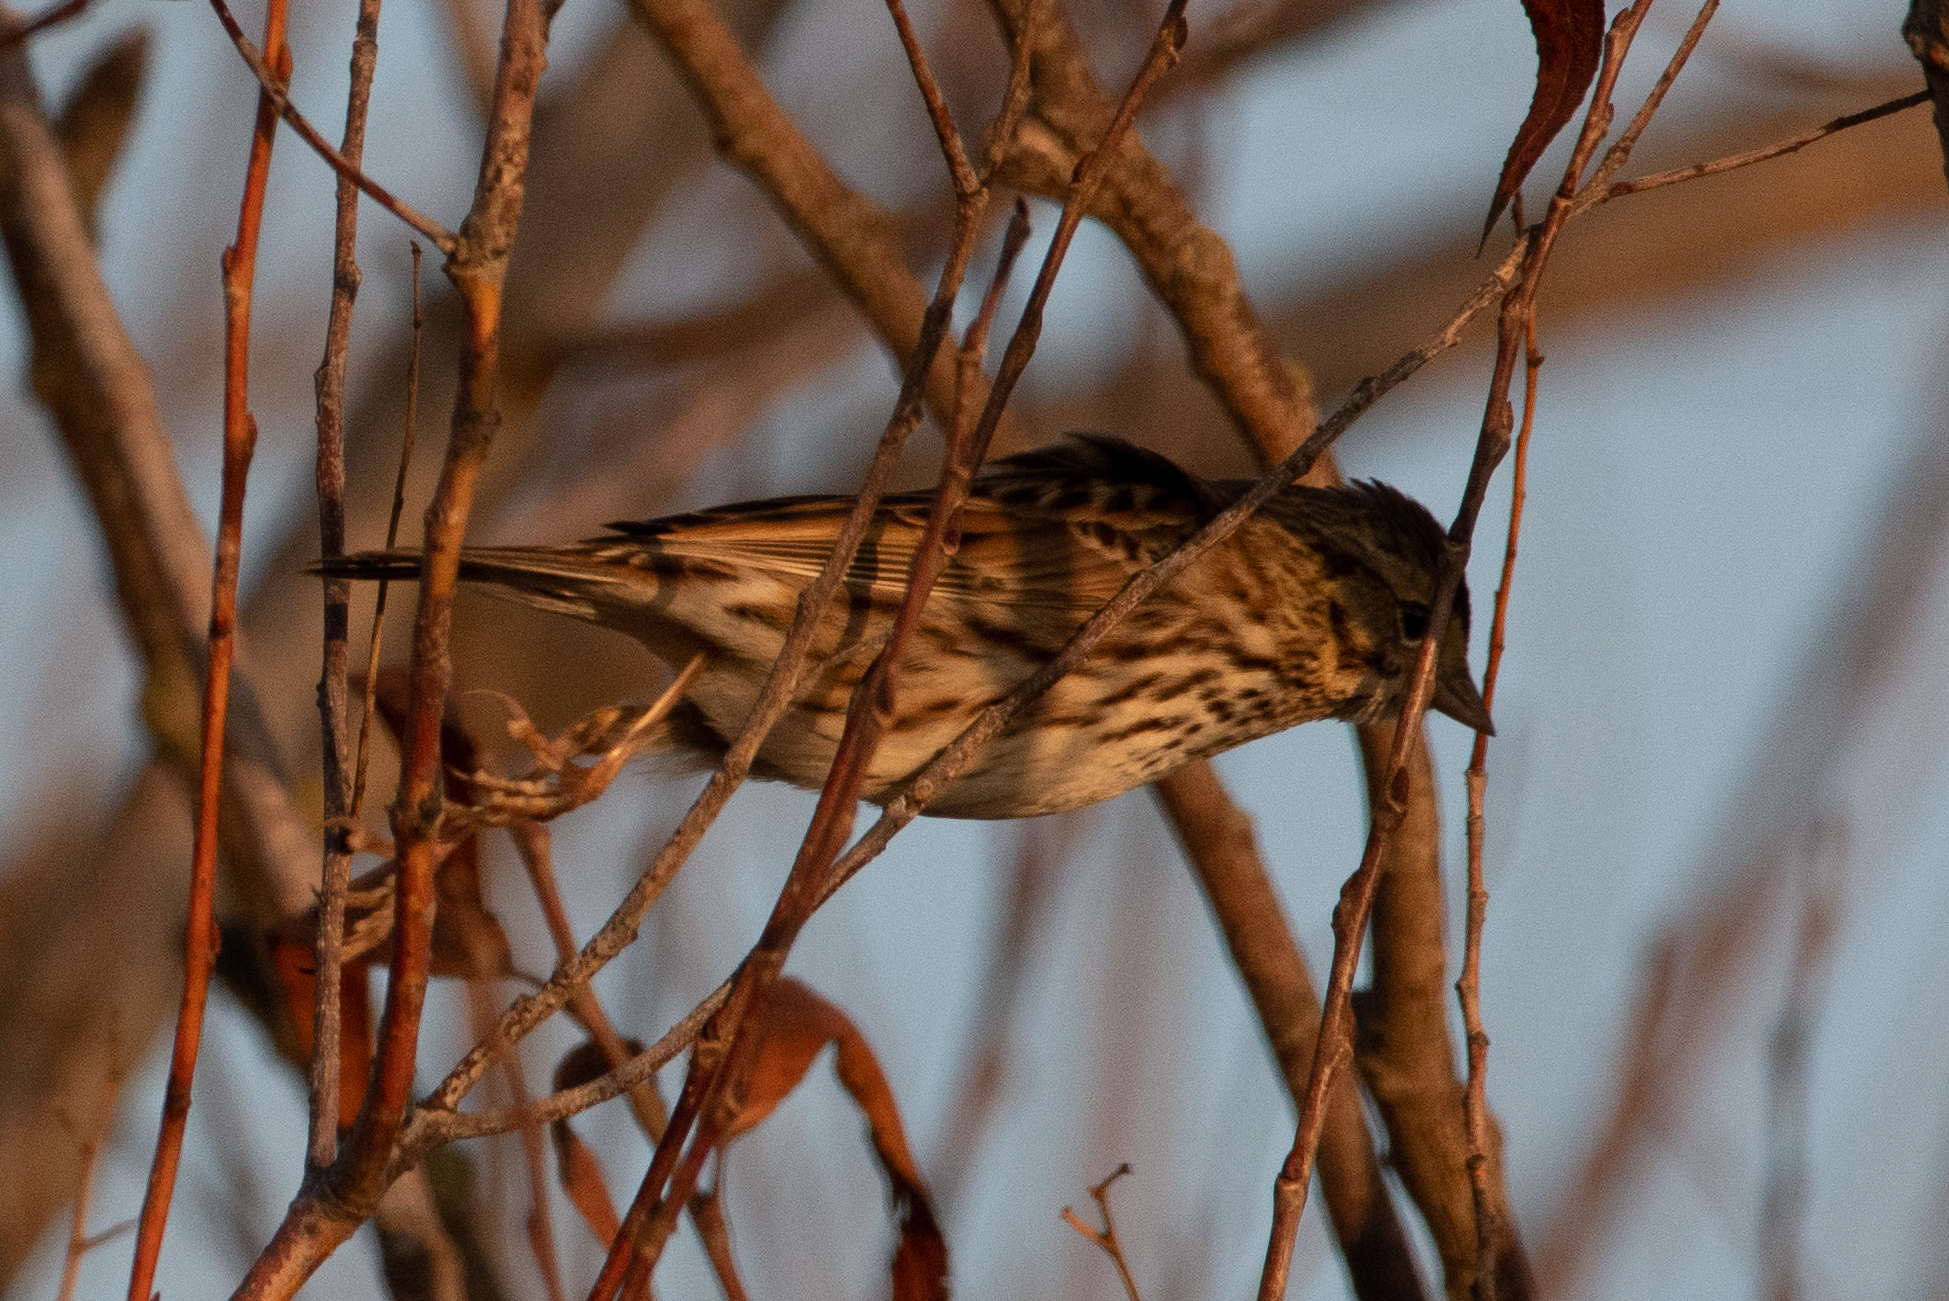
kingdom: Animalia
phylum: Chordata
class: Aves
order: Passeriformes
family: Passerellidae
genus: Passerculus
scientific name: Passerculus sandwichensis
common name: Savannah sparrow
